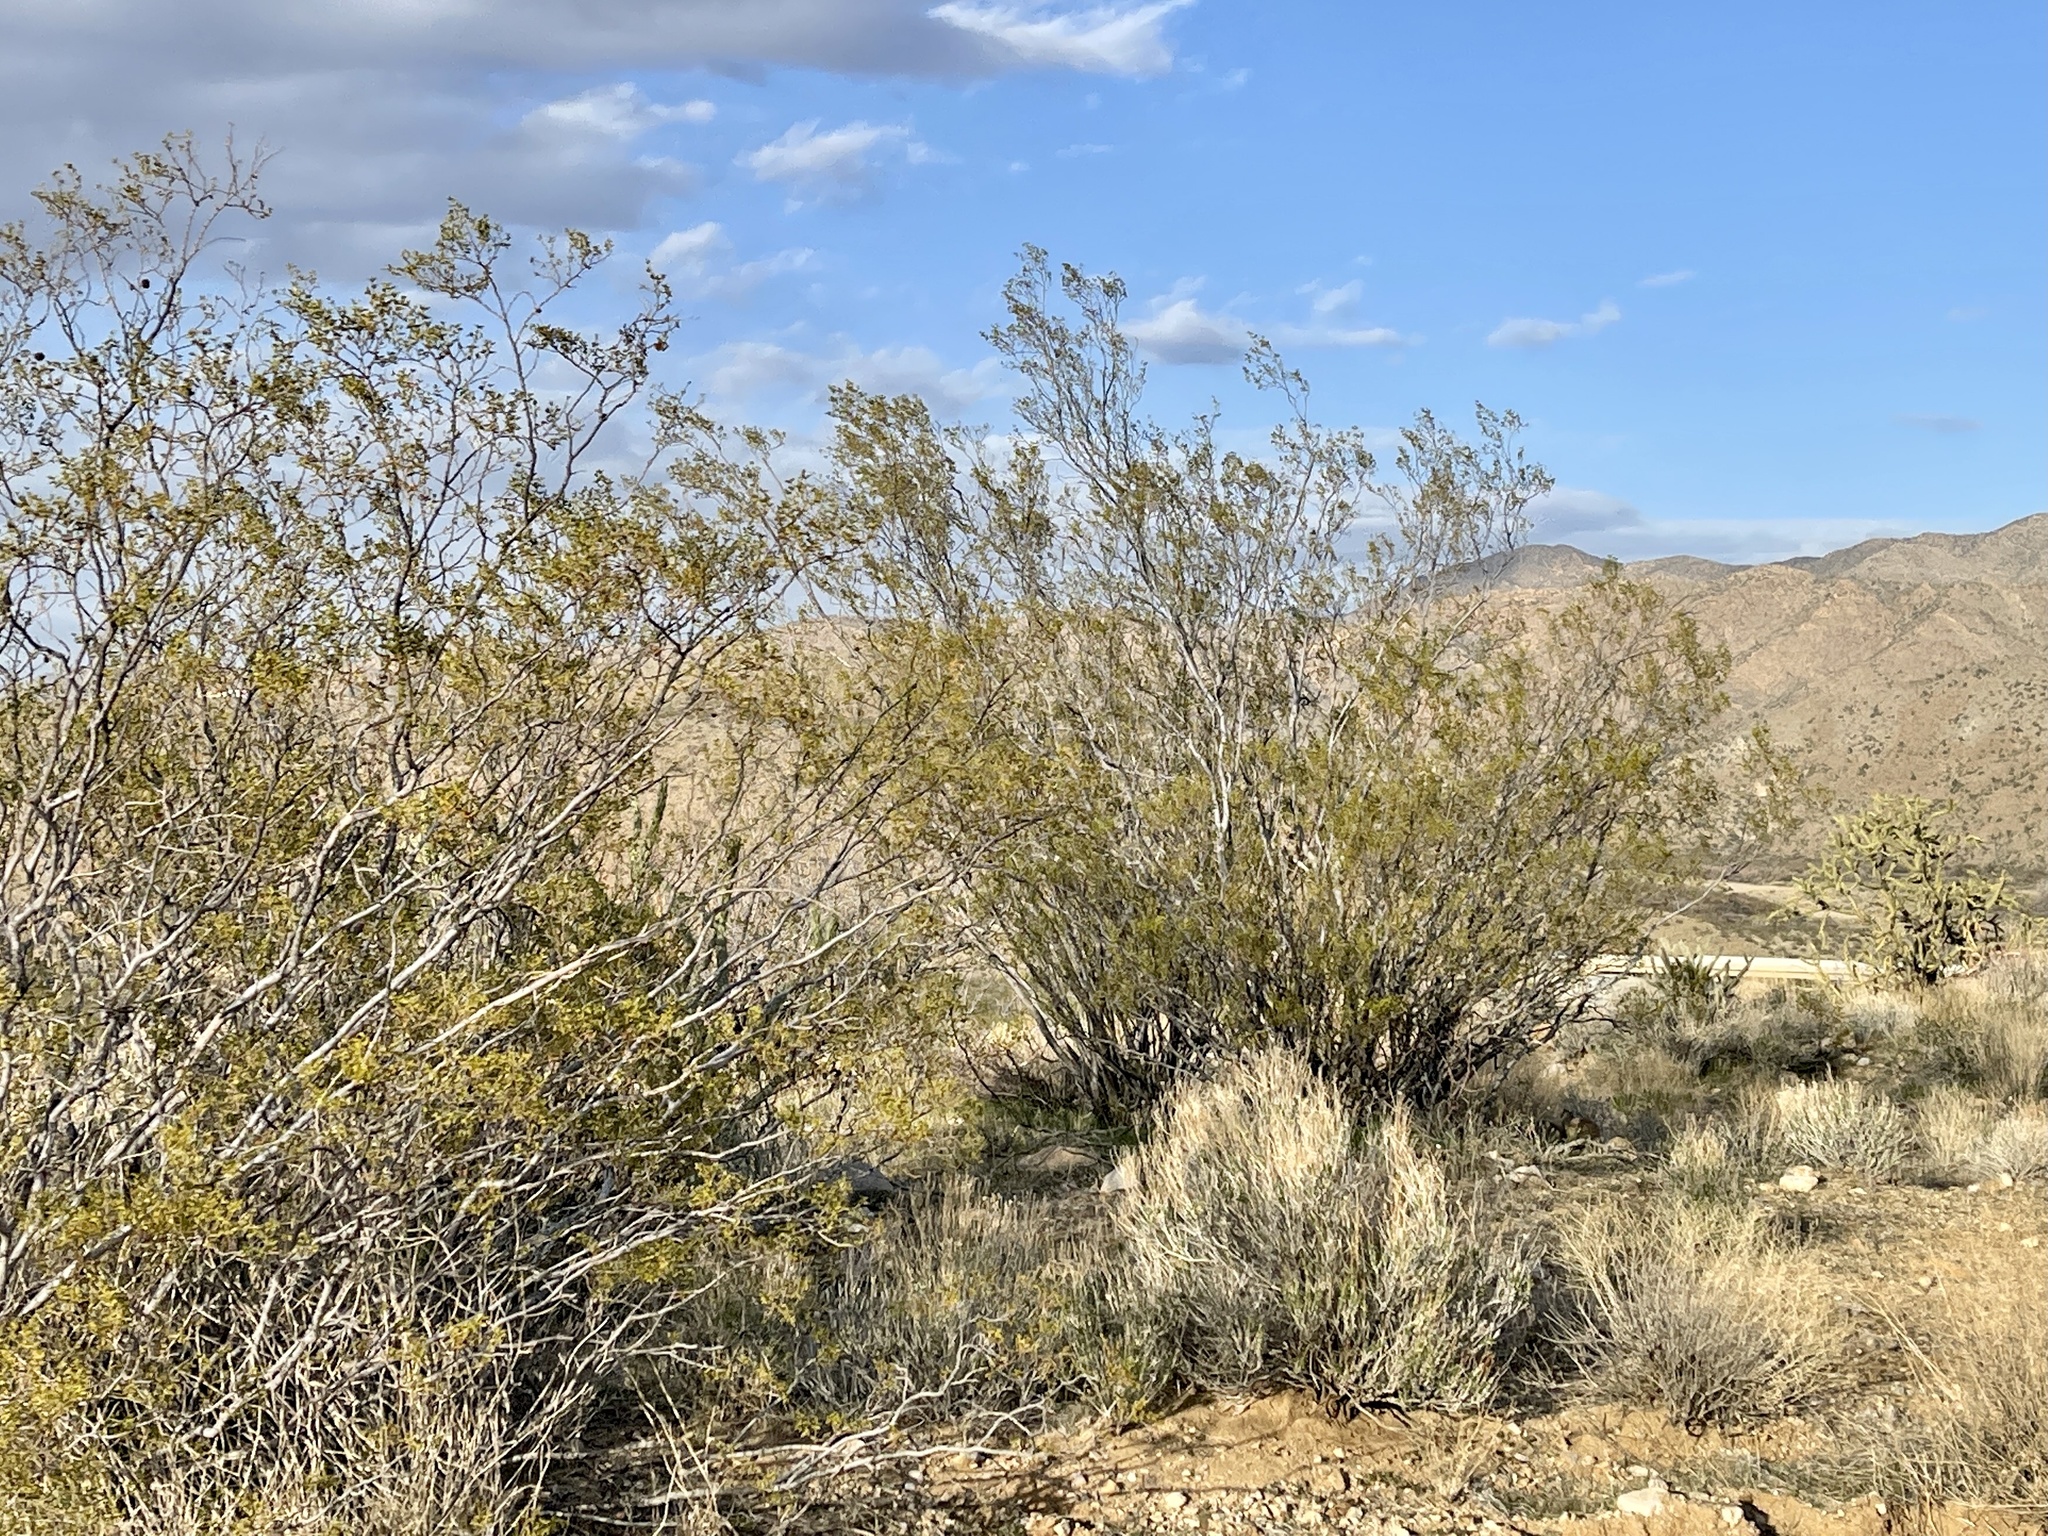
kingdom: Plantae
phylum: Tracheophyta
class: Magnoliopsida
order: Zygophyllales
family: Zygophyllaceae
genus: Larrea
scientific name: Larrea tridentata
